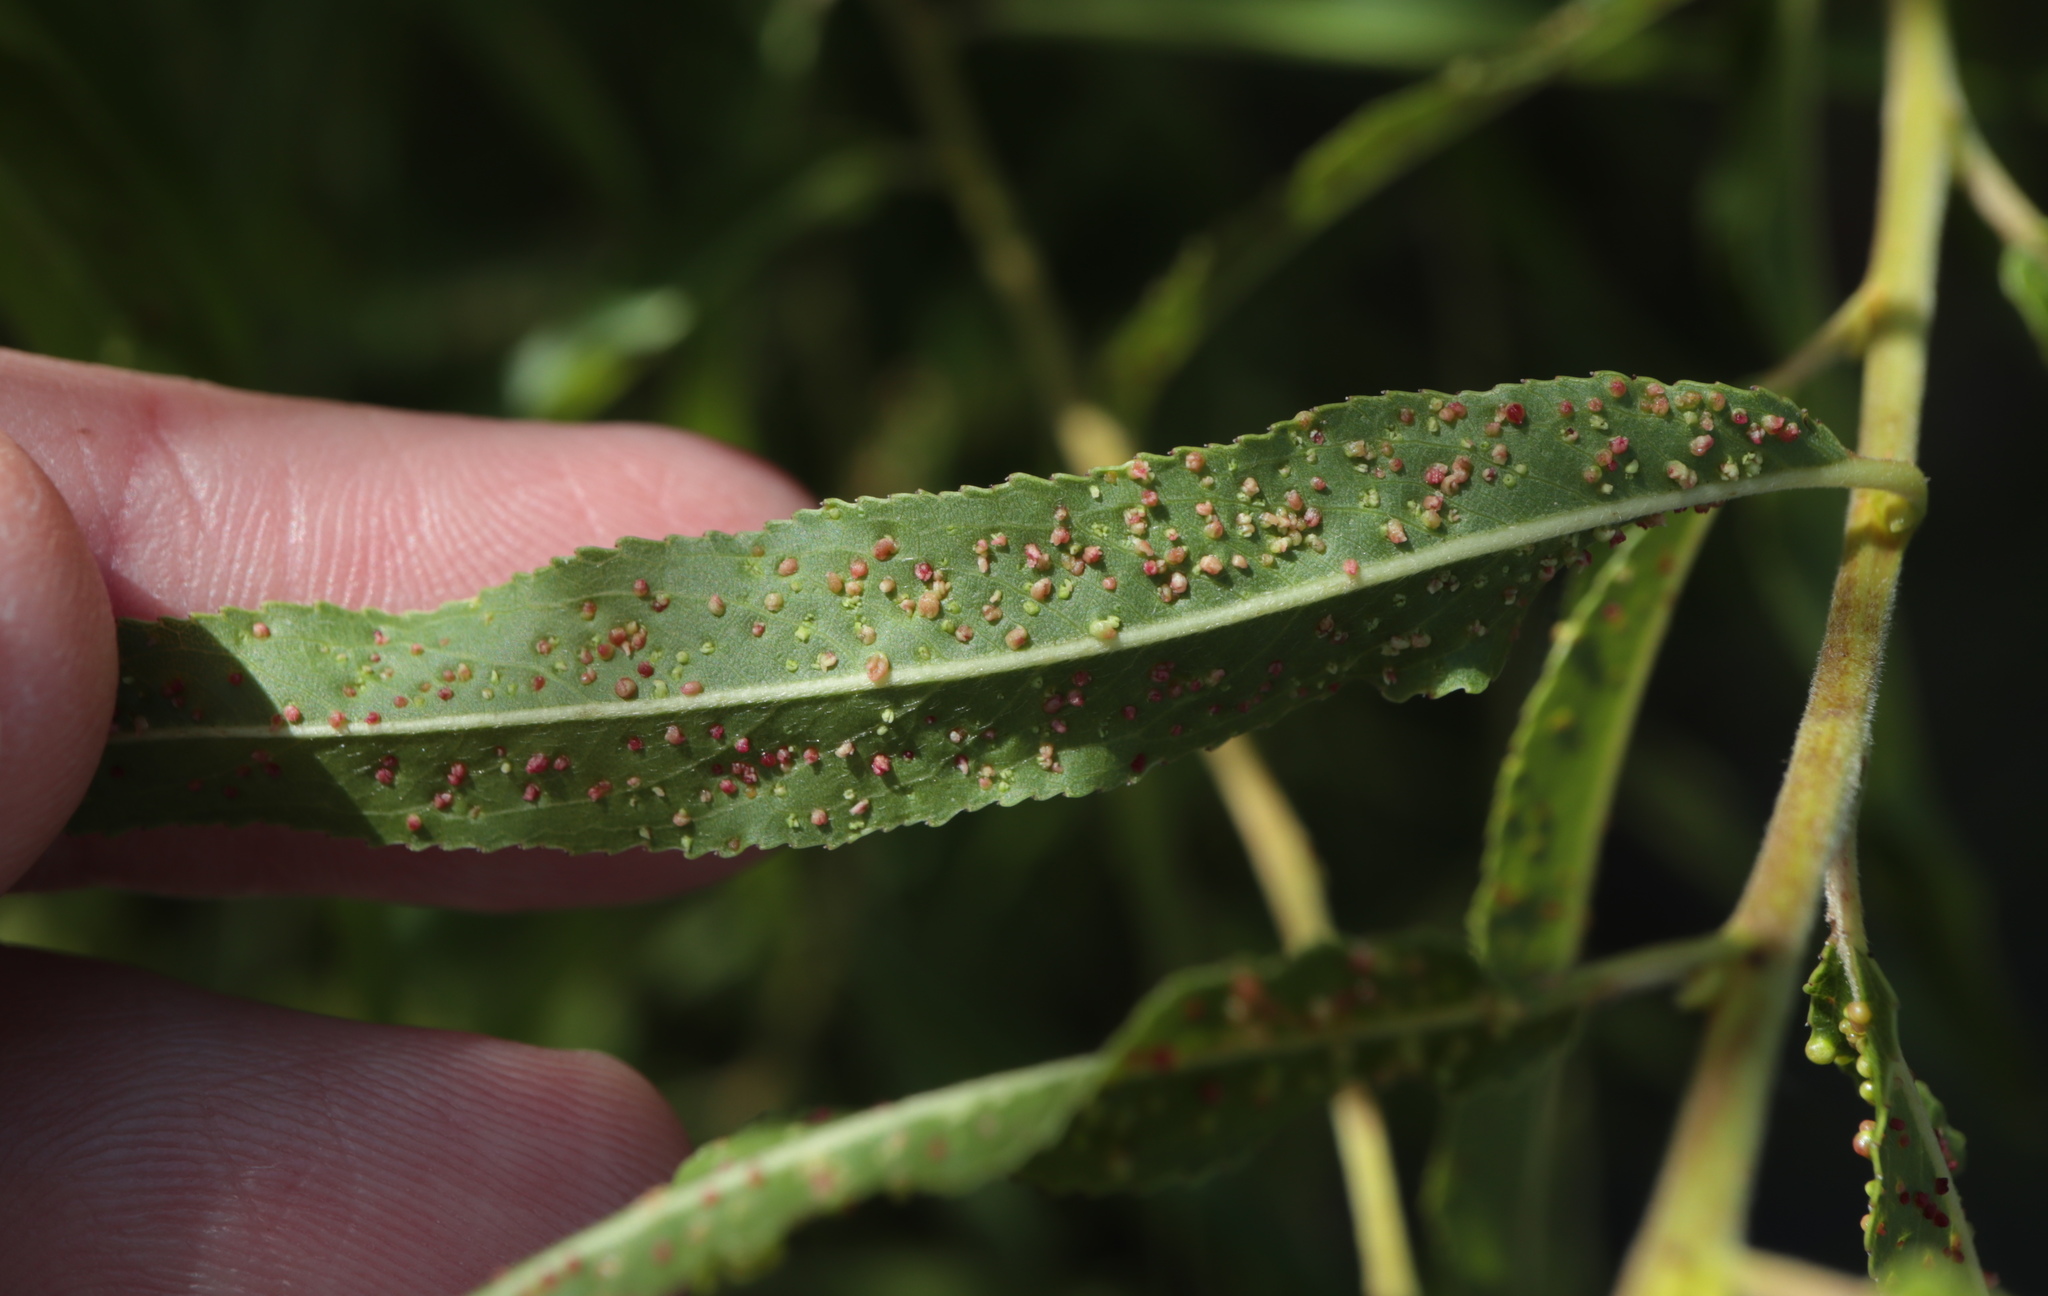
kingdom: Animalia
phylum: Arthropoda
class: Arachnida
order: Trombidiformes
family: Eriophyidae
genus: Aculus
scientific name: Aculus tetanothrix
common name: Willow bead gall mite
